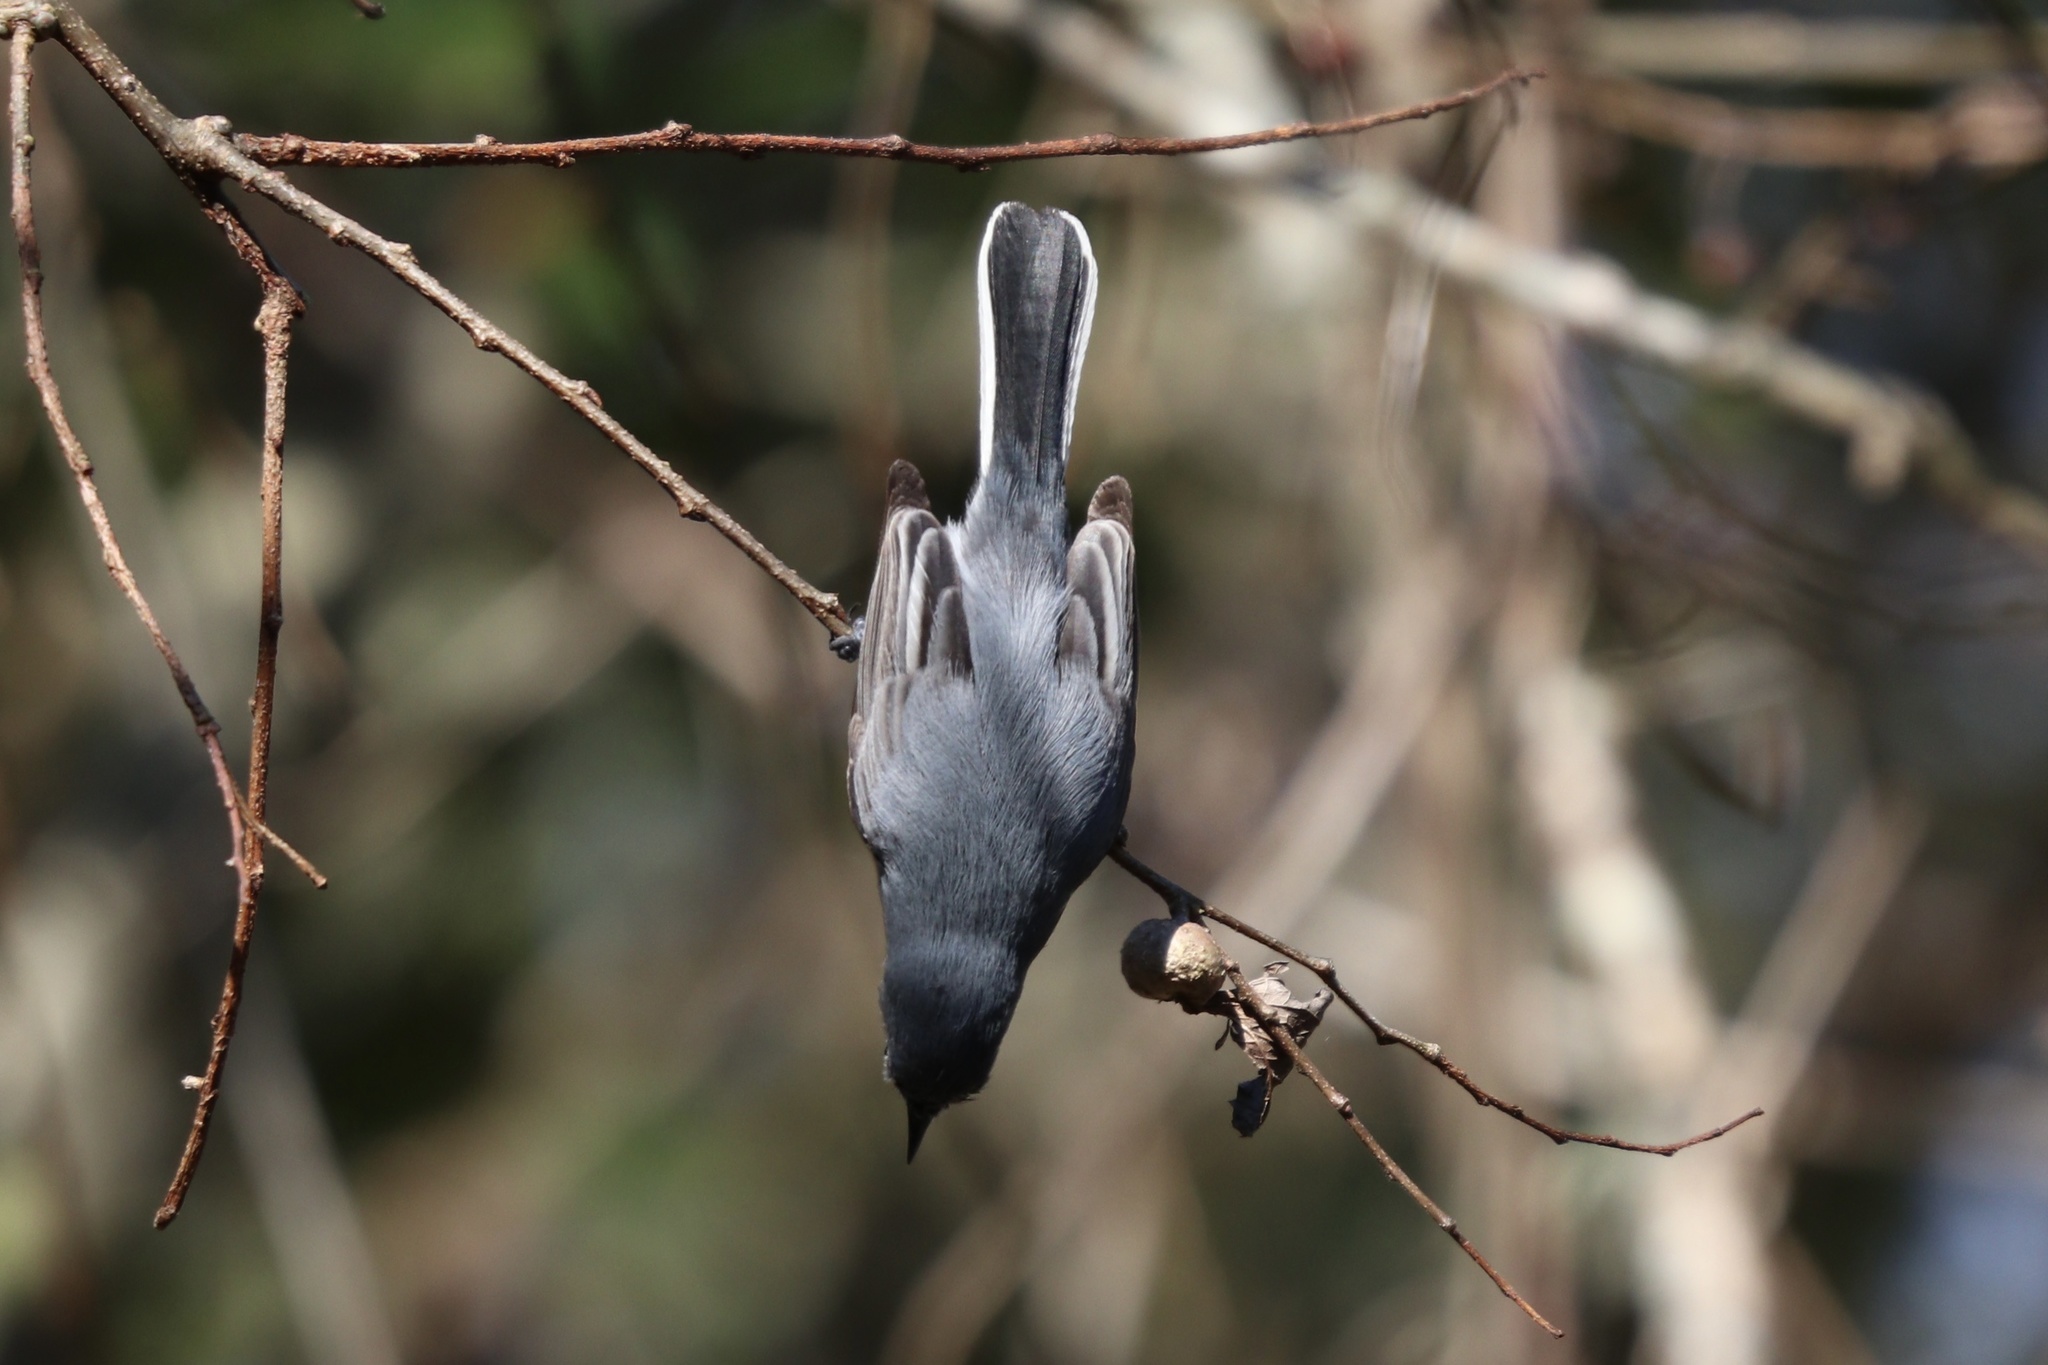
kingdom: Animalia
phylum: Chordata
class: Aves
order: Passeriformes
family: Polioptilidae
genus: Polioptila
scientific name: Polioptila caerulea
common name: Blue-gray gnatcatcher
